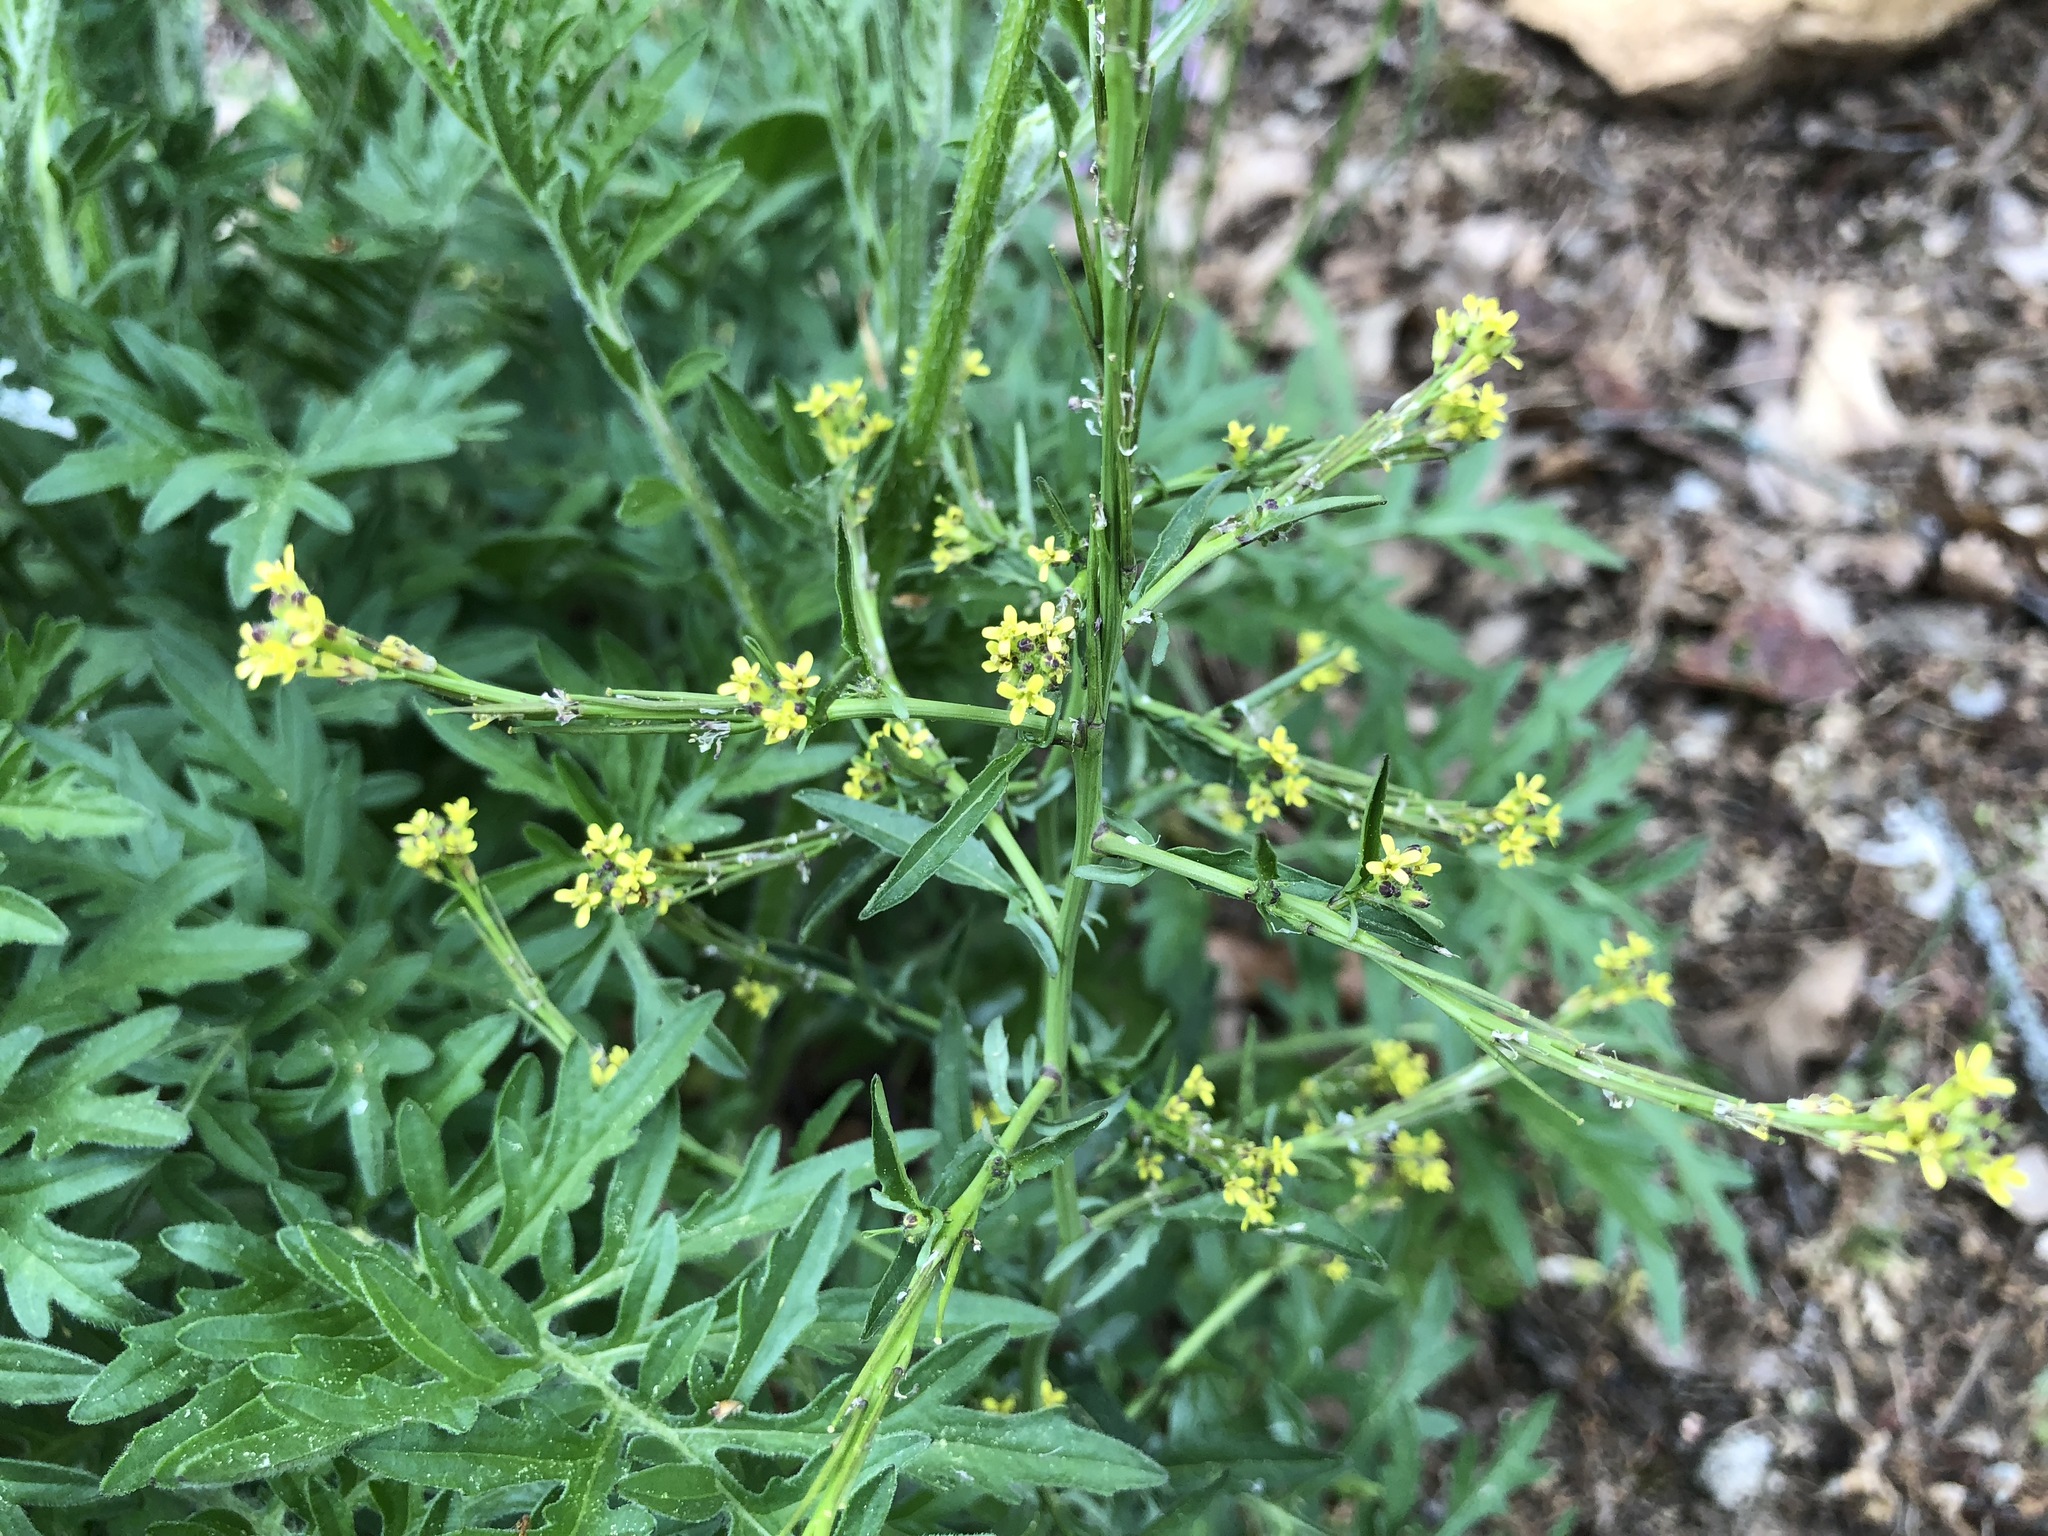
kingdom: Plantae
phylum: Tracheophyta
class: Magnoliopsida
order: Brassicales
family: Brassicaceae
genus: Sisymbrium
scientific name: Sisymbrium officinale
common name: Hedge mustard
